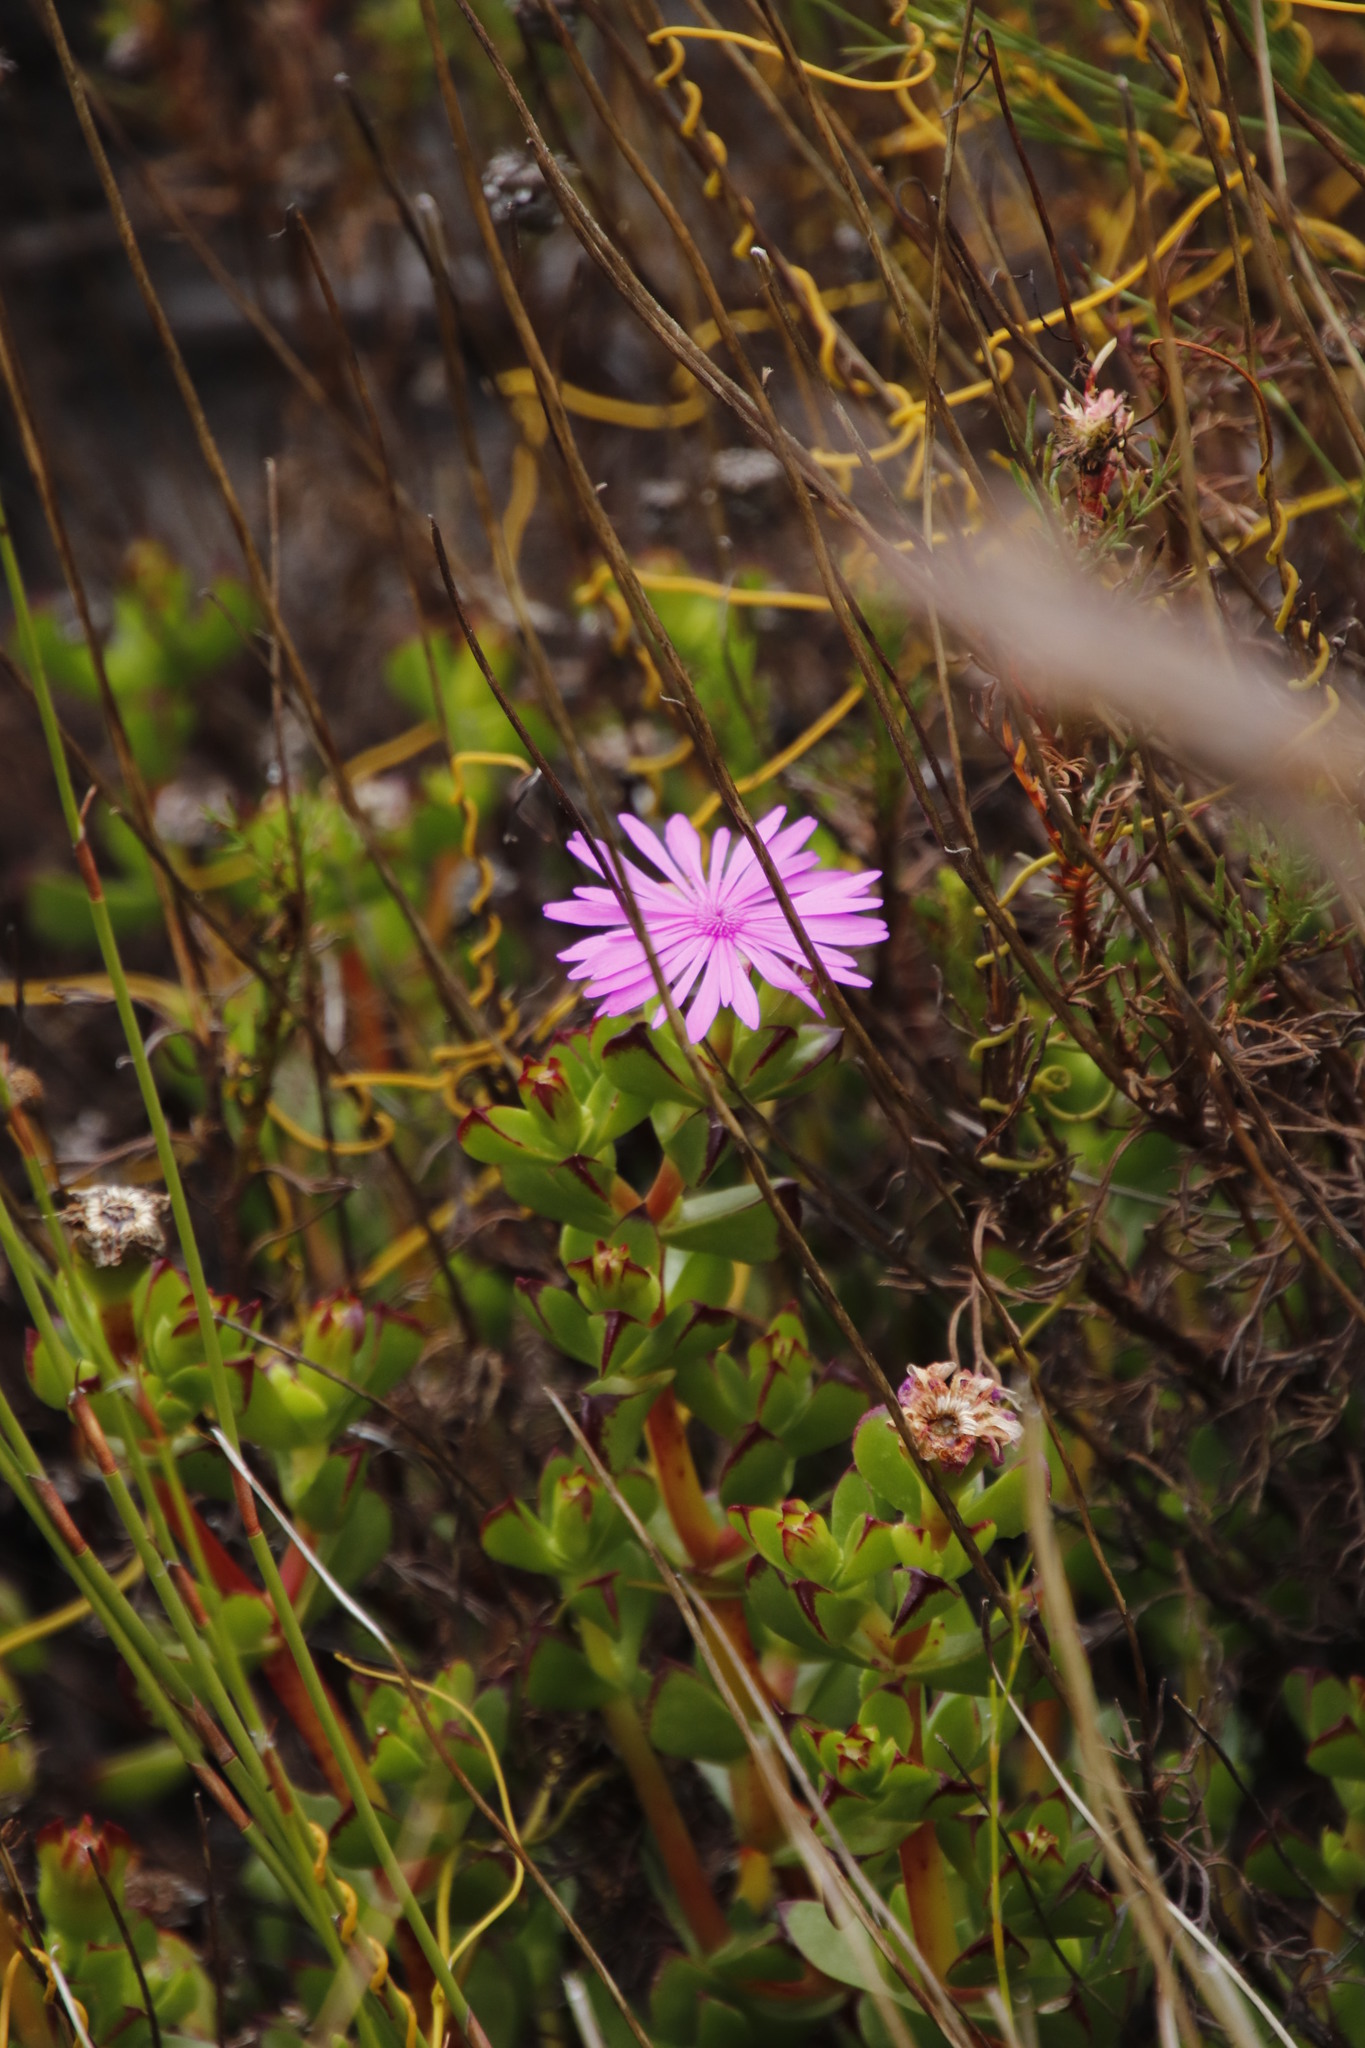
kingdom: Plantae
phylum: Tracheophyta
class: Magnoliopsida
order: Caryophyllales
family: Aizoaceae
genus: Erepsia
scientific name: Erepsia inclaudens
